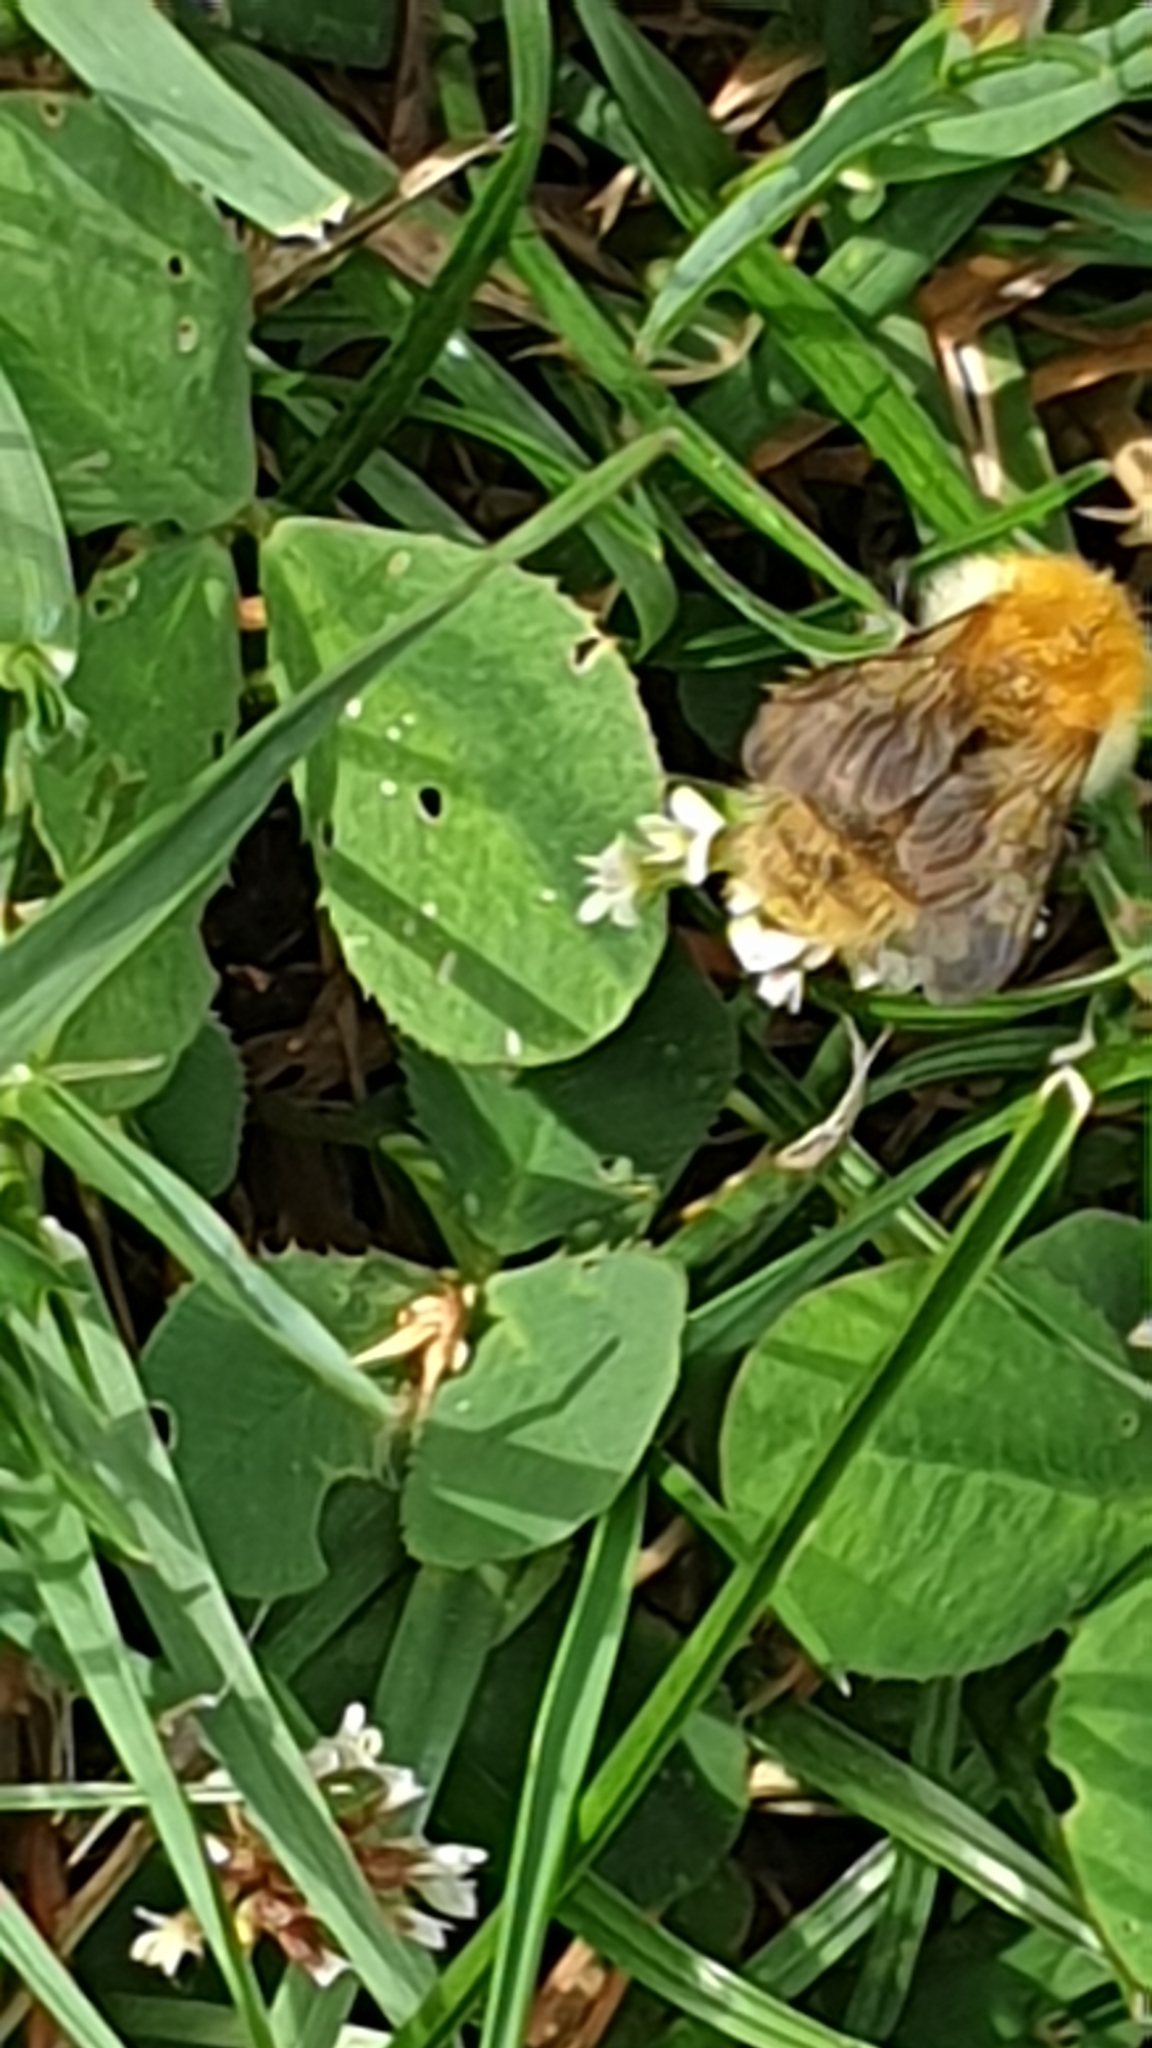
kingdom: Animalia
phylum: Arthropoda
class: Insecta
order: Hymenoptera
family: Apidae
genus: Bombus
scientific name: Bombus pascuorum
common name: Common carder bee
